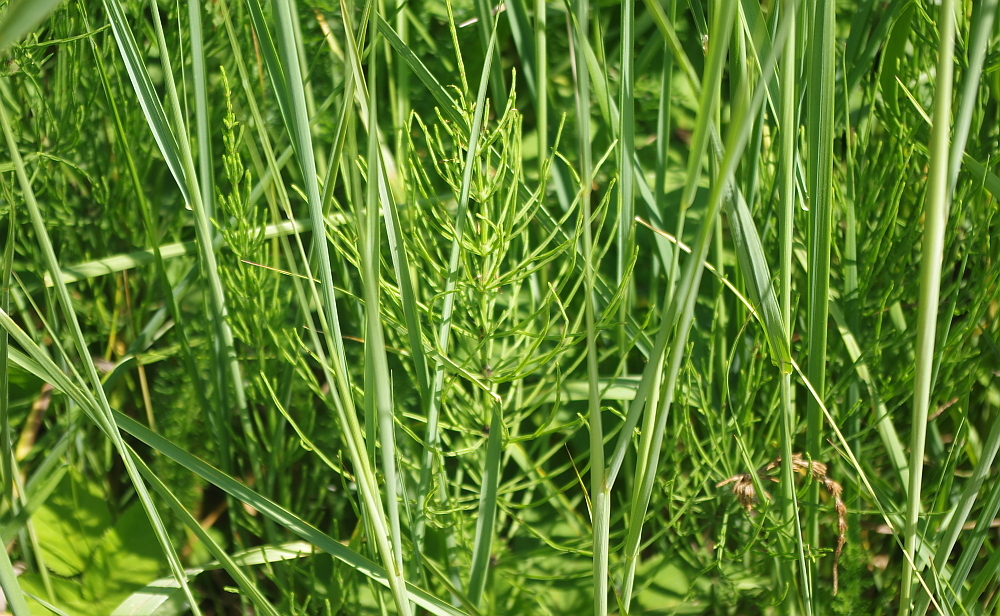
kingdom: Plantae
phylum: Tracheophyta
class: Polypodiopsida
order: Equisetales
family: Equisetaceae
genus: Equisetum
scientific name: Equisetum arvense
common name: Field horsetail
